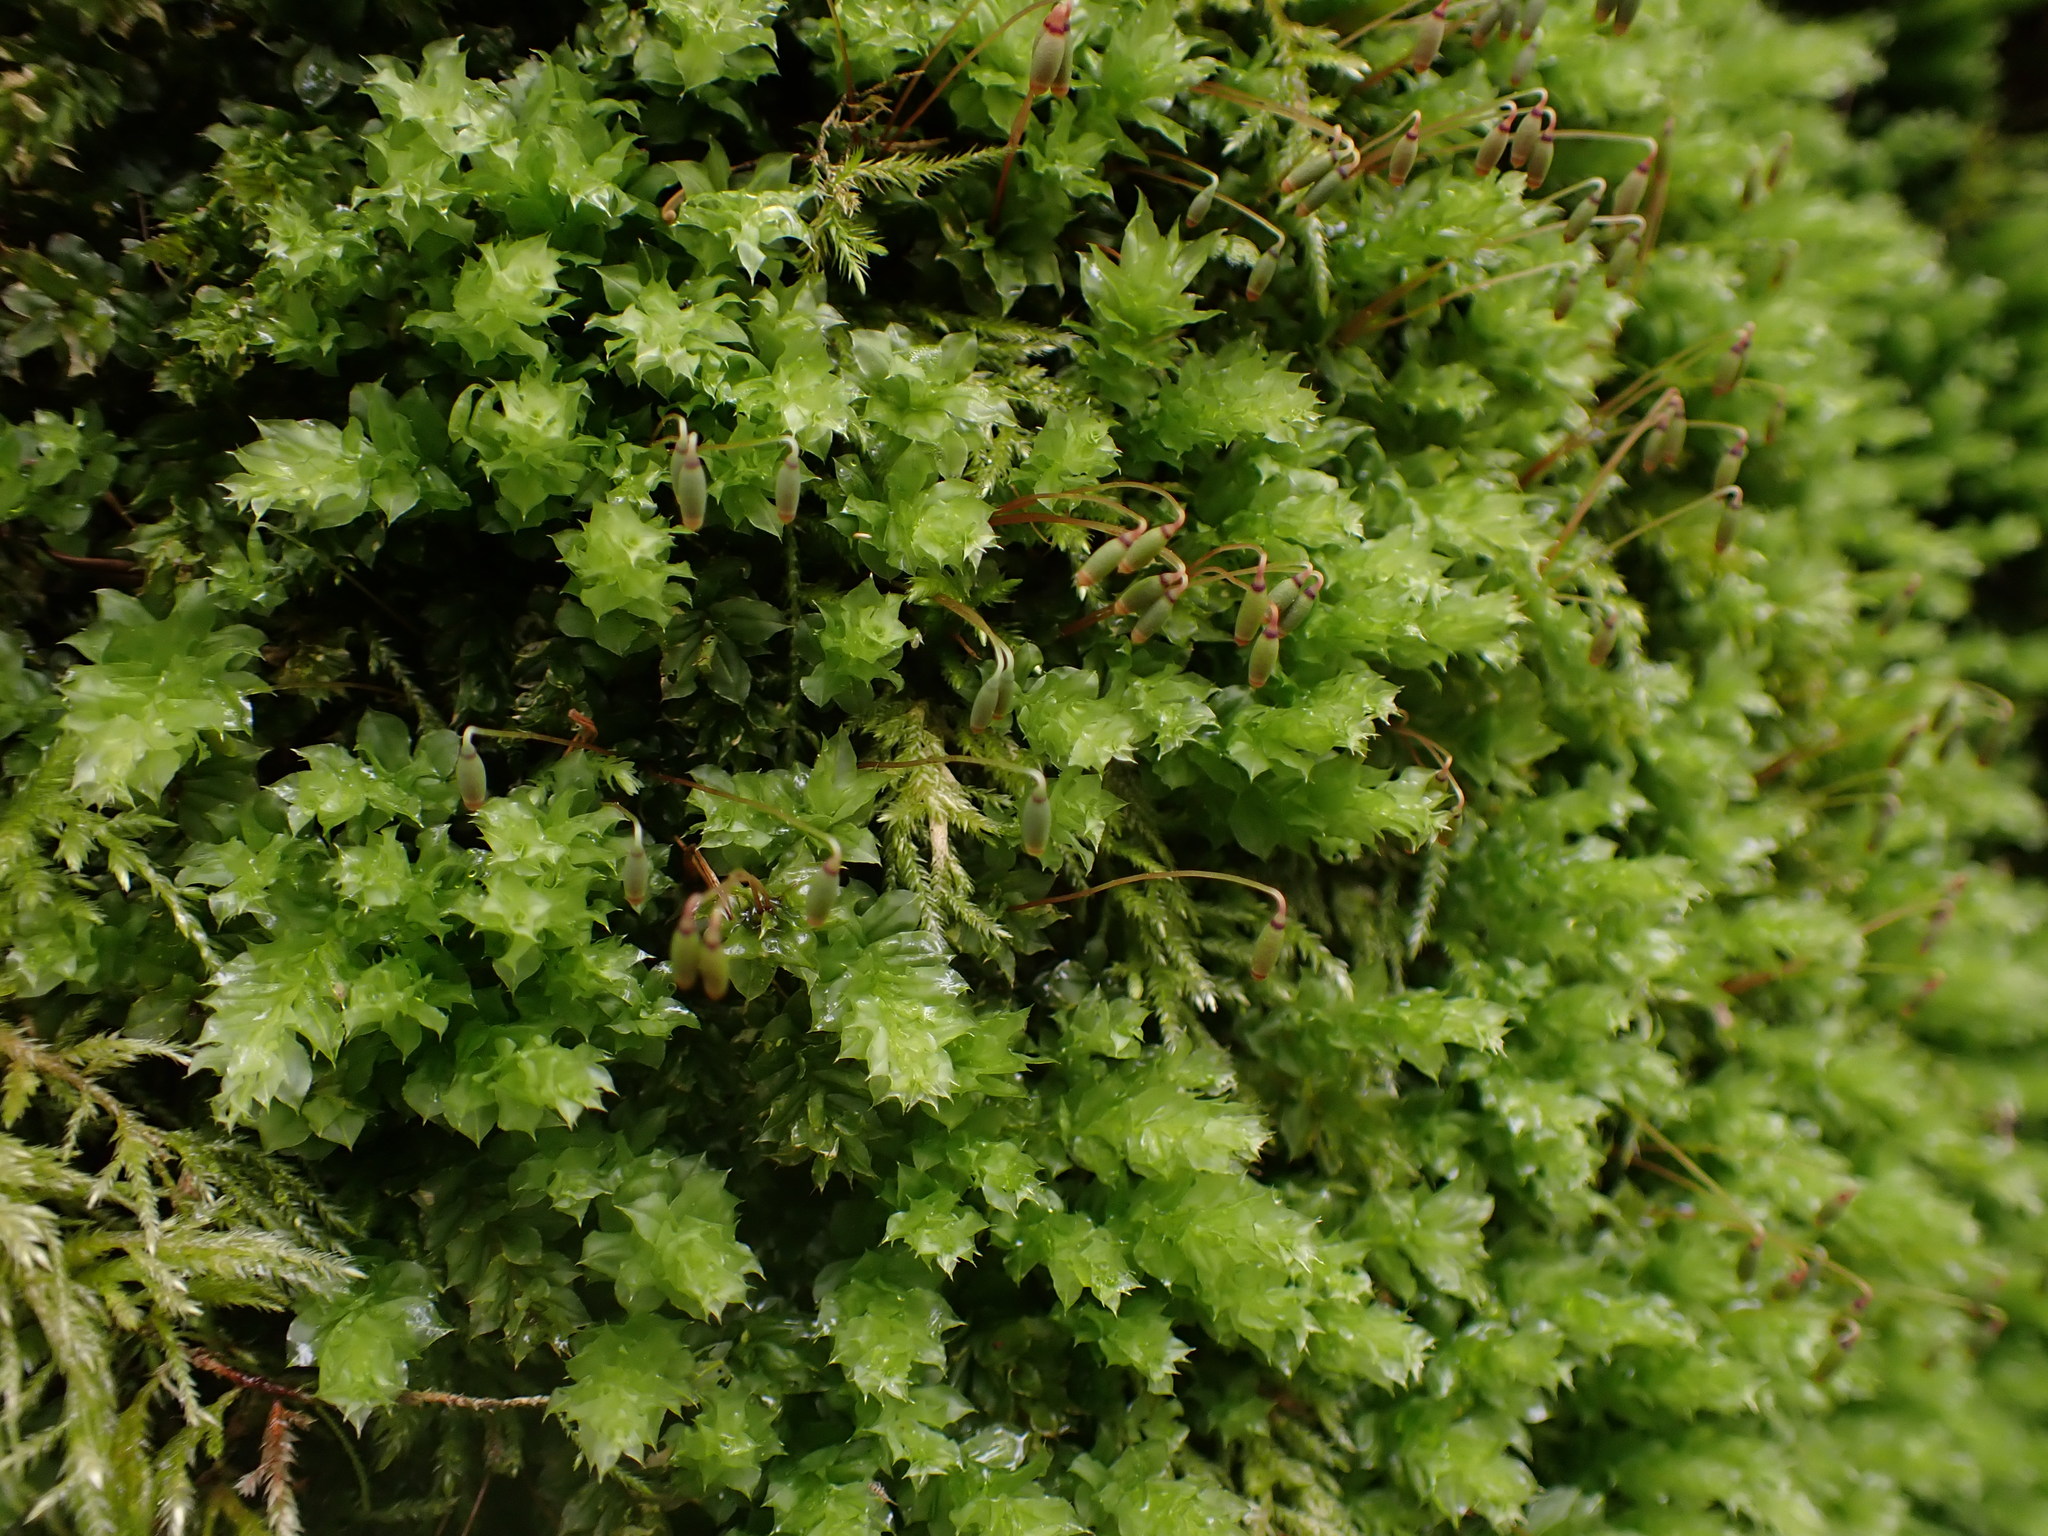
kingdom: Plantae
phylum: Bryophyta
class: Bryopsida
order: Bryales
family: Mniaceae
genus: Plagiomnium
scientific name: Plagiomnium venustum
